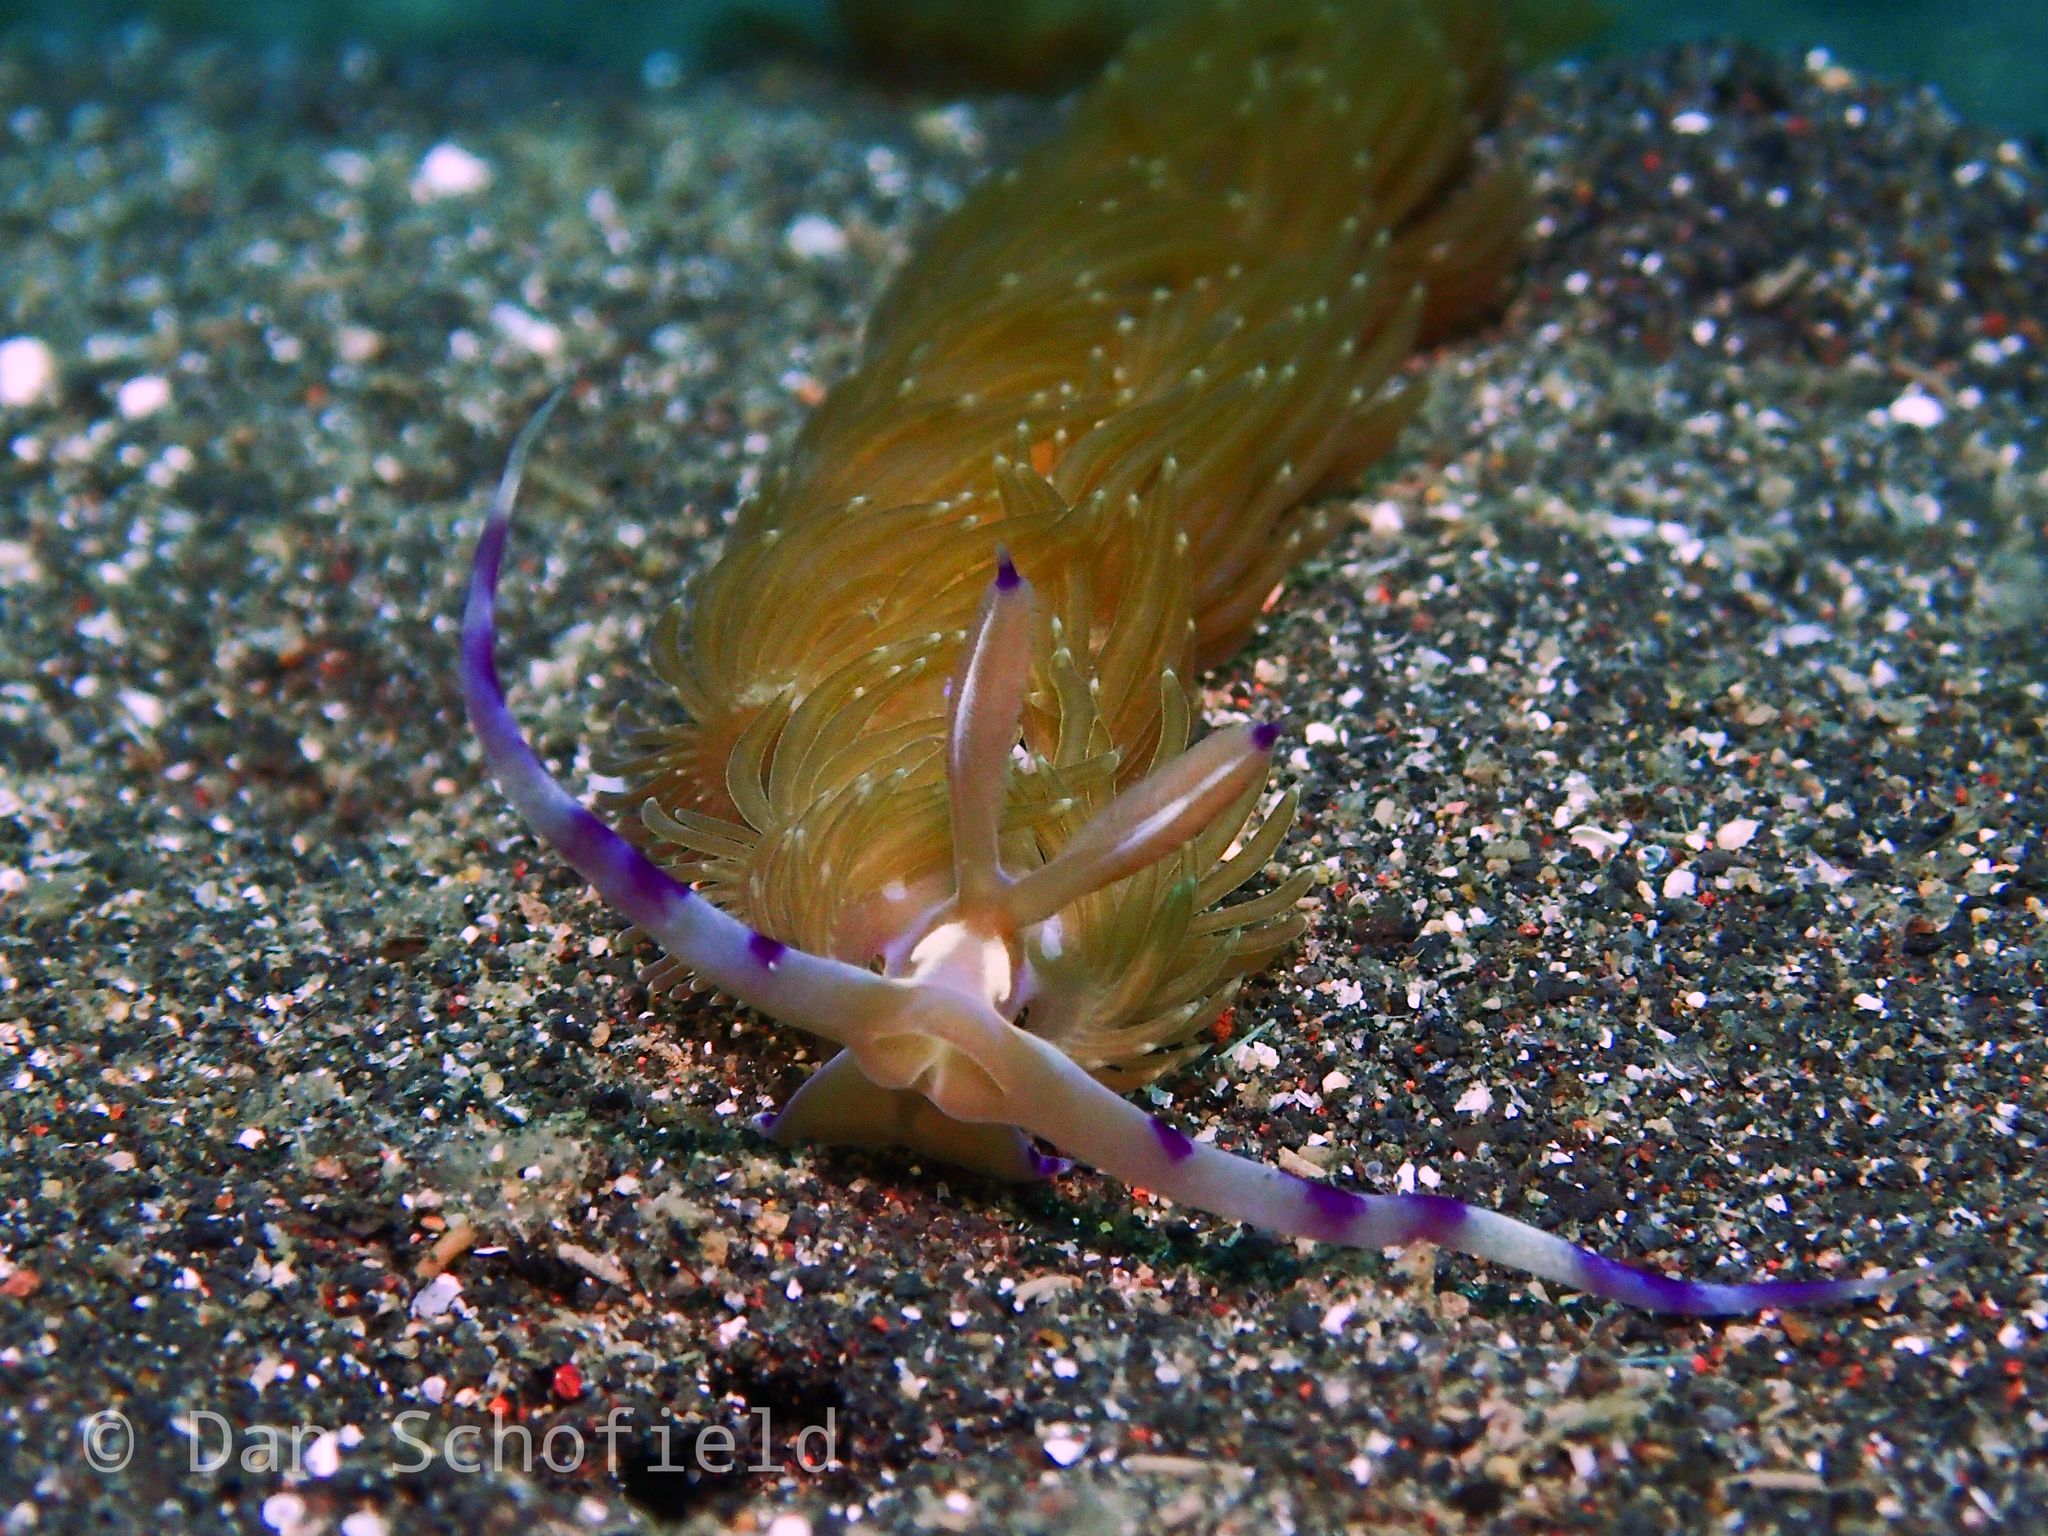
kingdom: Animalia
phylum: Mollusca
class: Gastropoda
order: Nudibranchia
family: Facelinidae
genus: Pteraeolidia
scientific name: Pteraeolidia semperi
